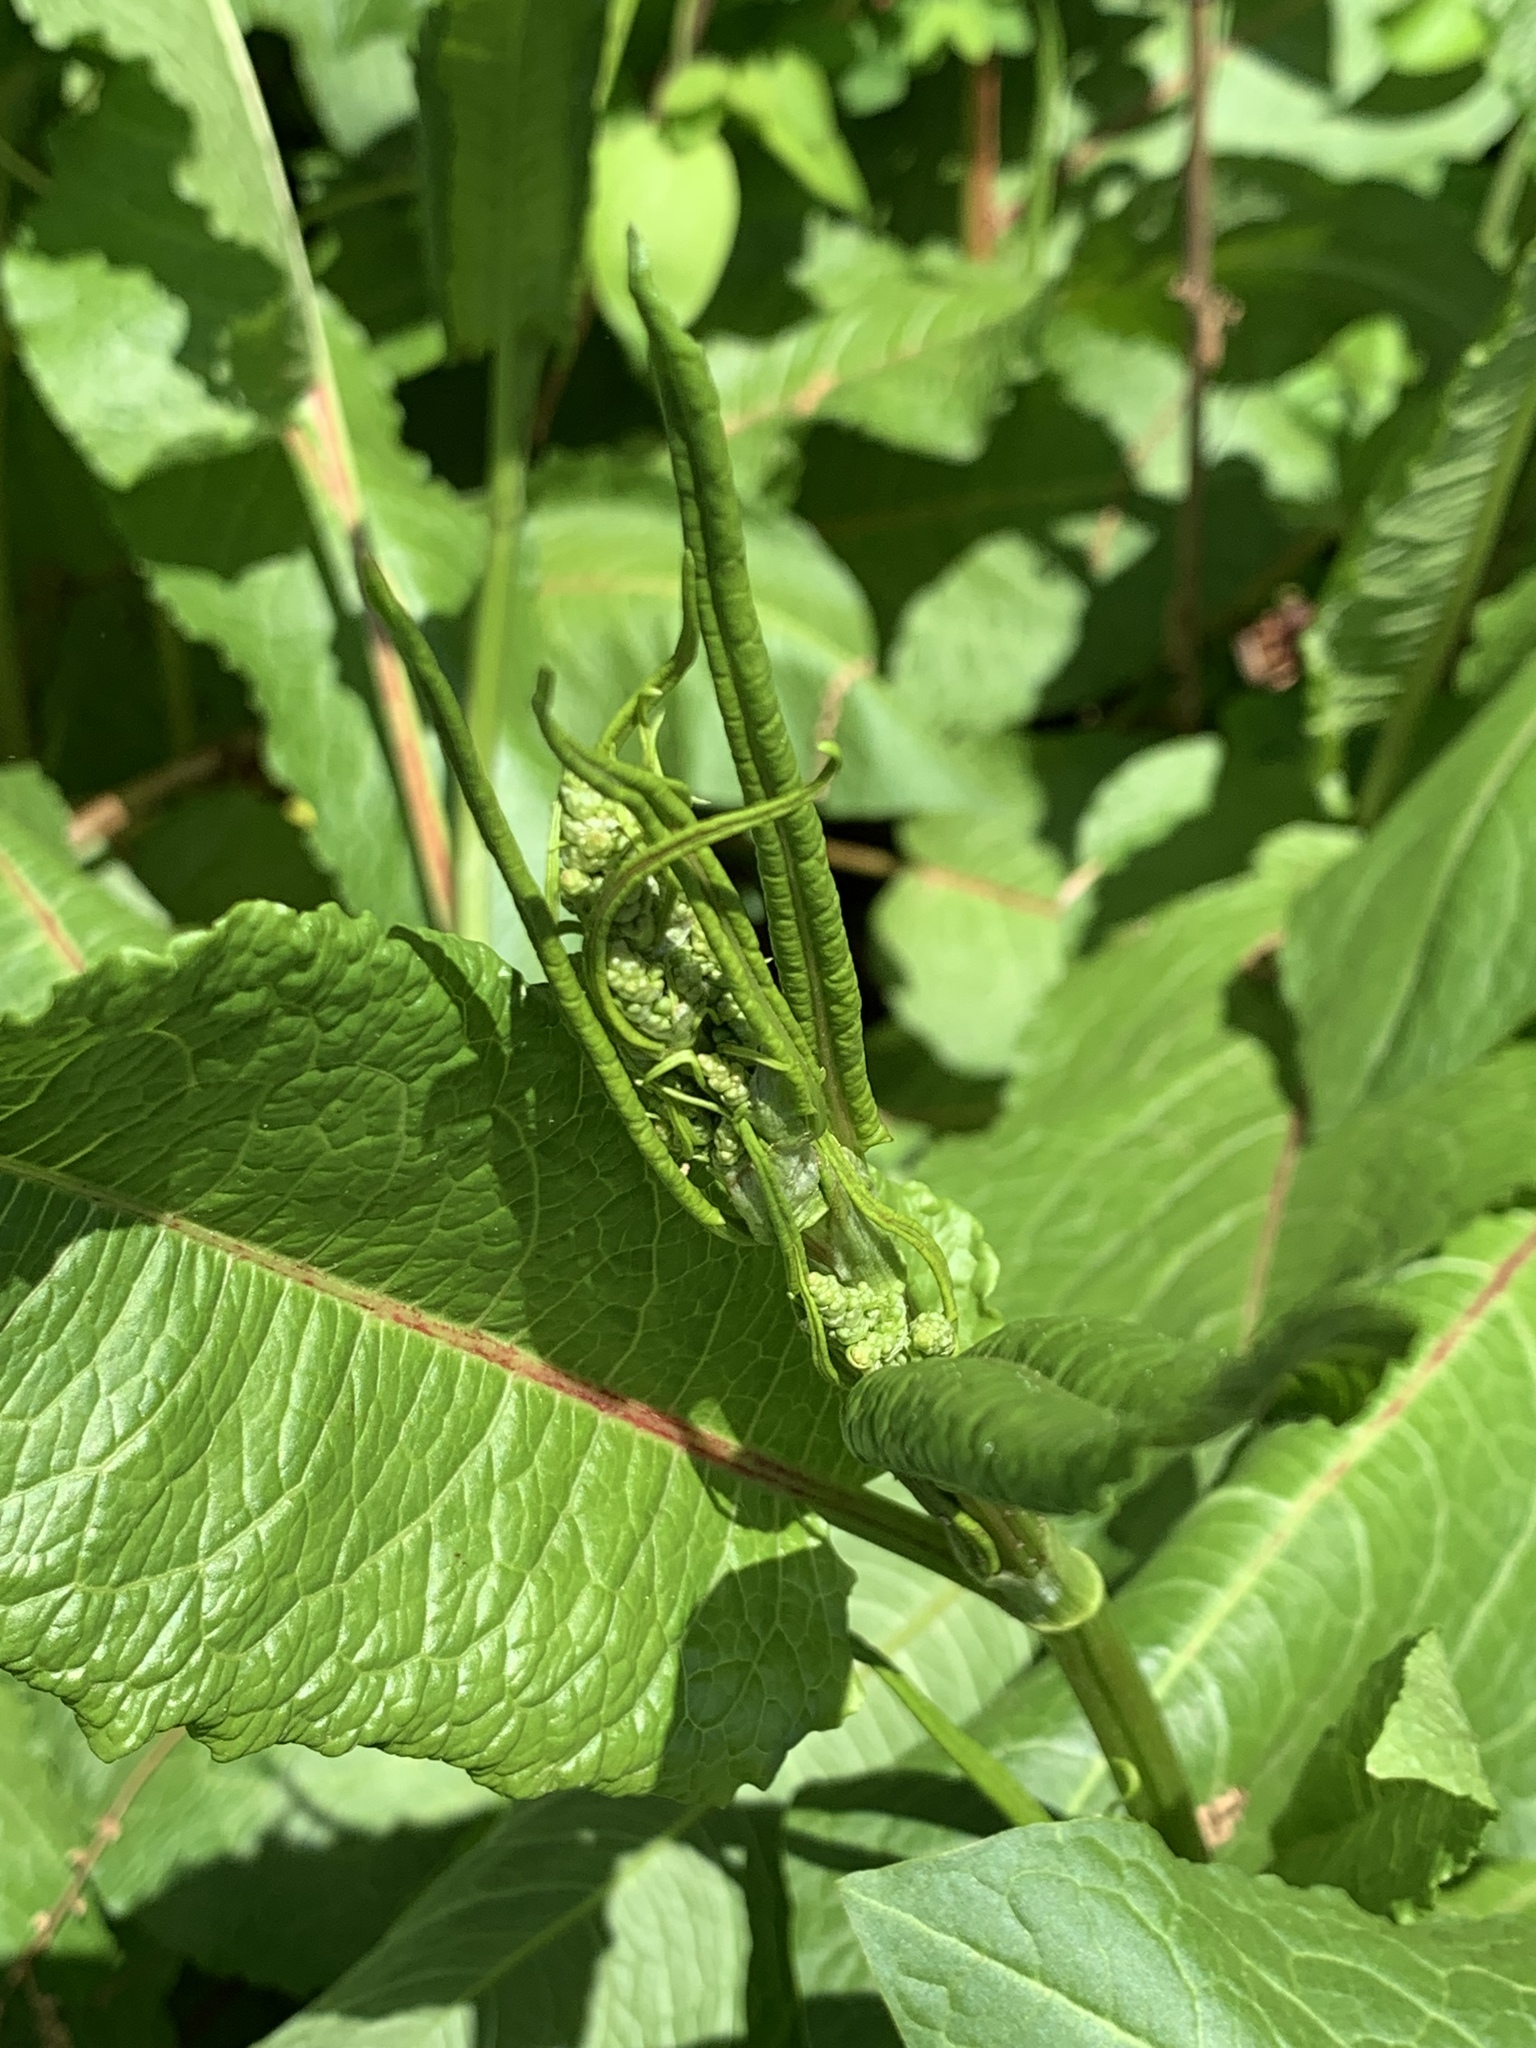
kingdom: Plantae
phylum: Tracheophyta
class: Magnoliopsida
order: Caryophyllales
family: Polygonaceae
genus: Rumex
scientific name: Rumex obtusifolius
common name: Bitter dock
